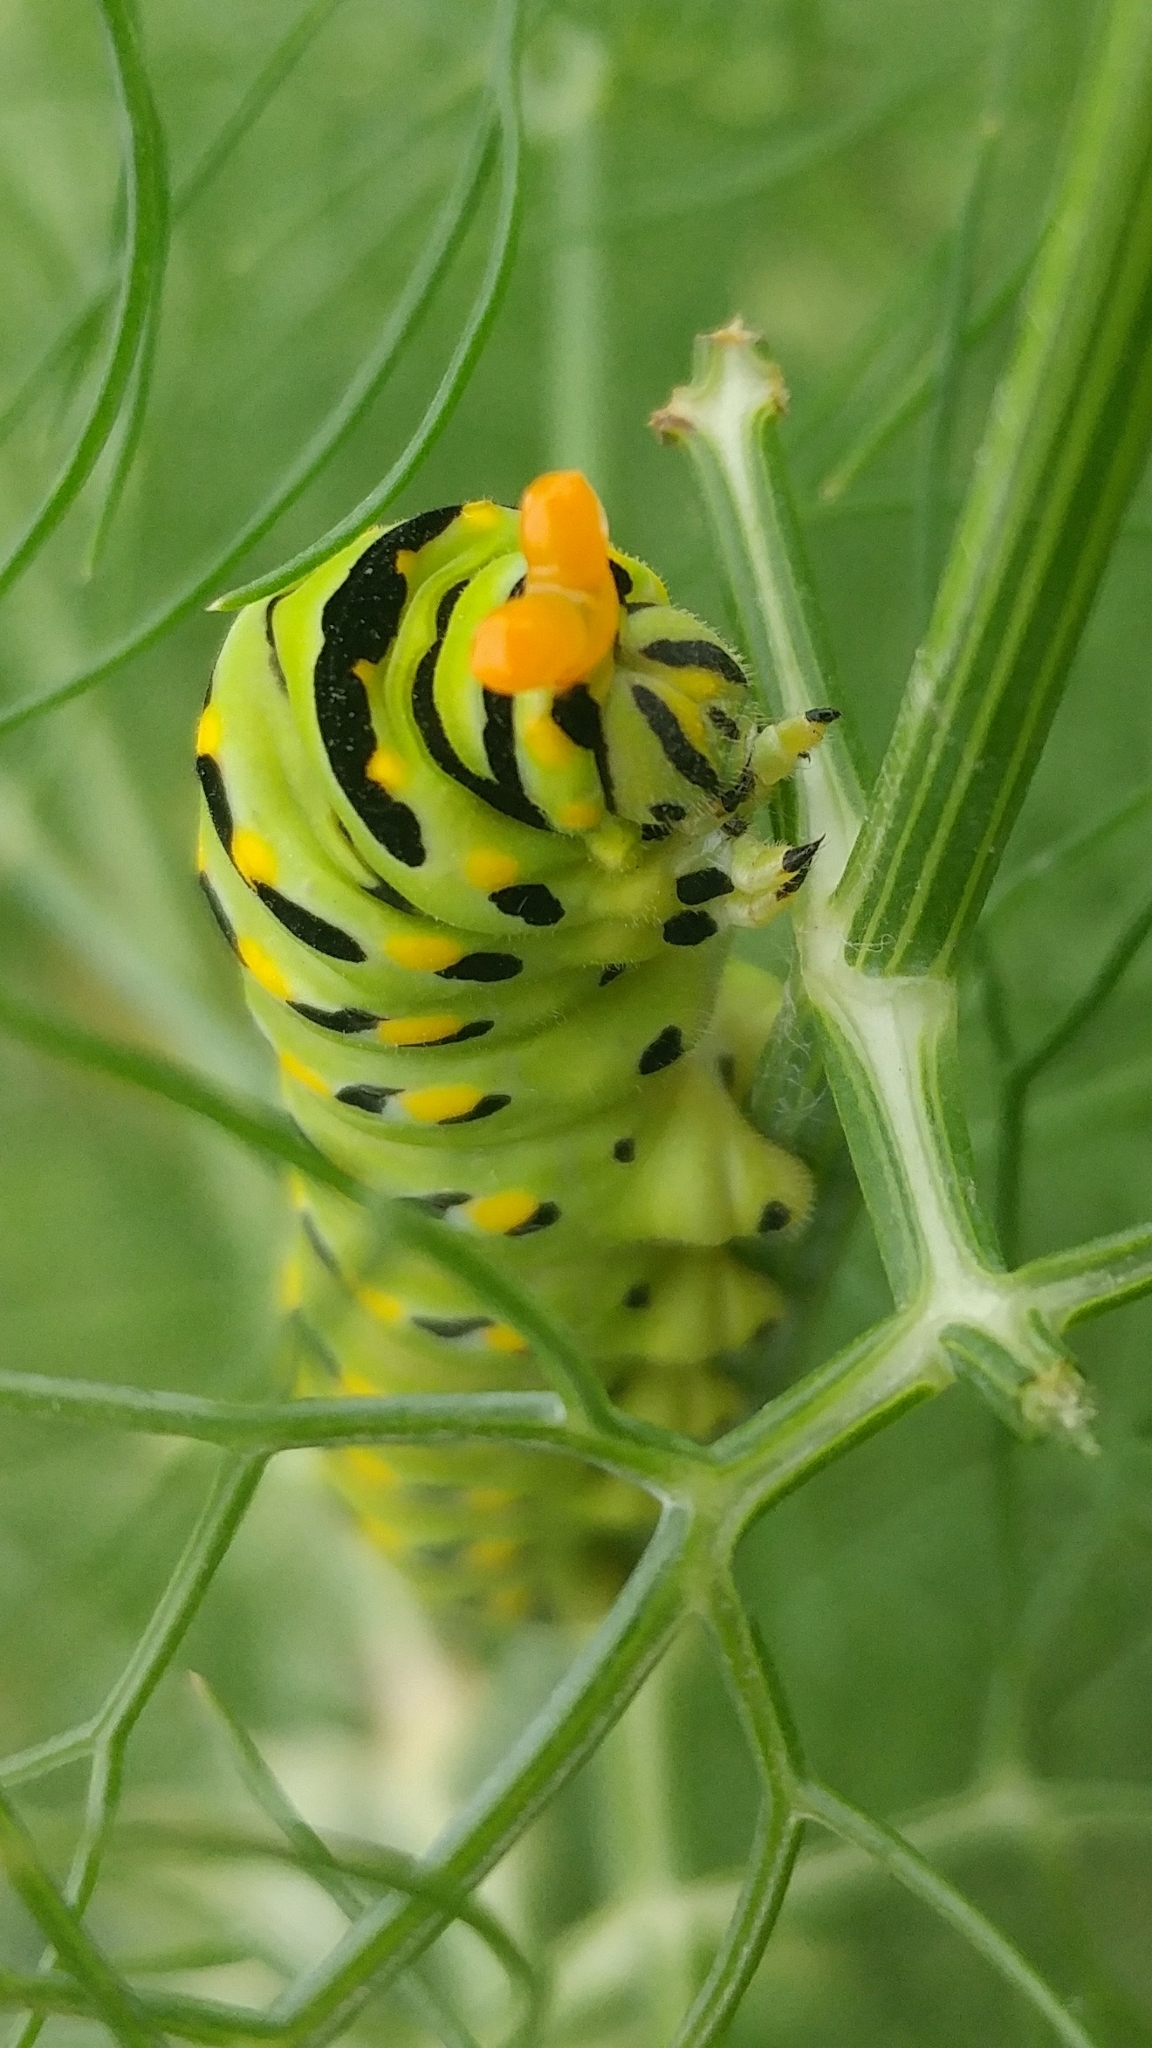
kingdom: Animalia
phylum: Arthropoda
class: Insecta
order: Lepidoptera
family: Papilionidae
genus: Papilio
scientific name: Papilio zelicaon
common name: Anise swallowtail
